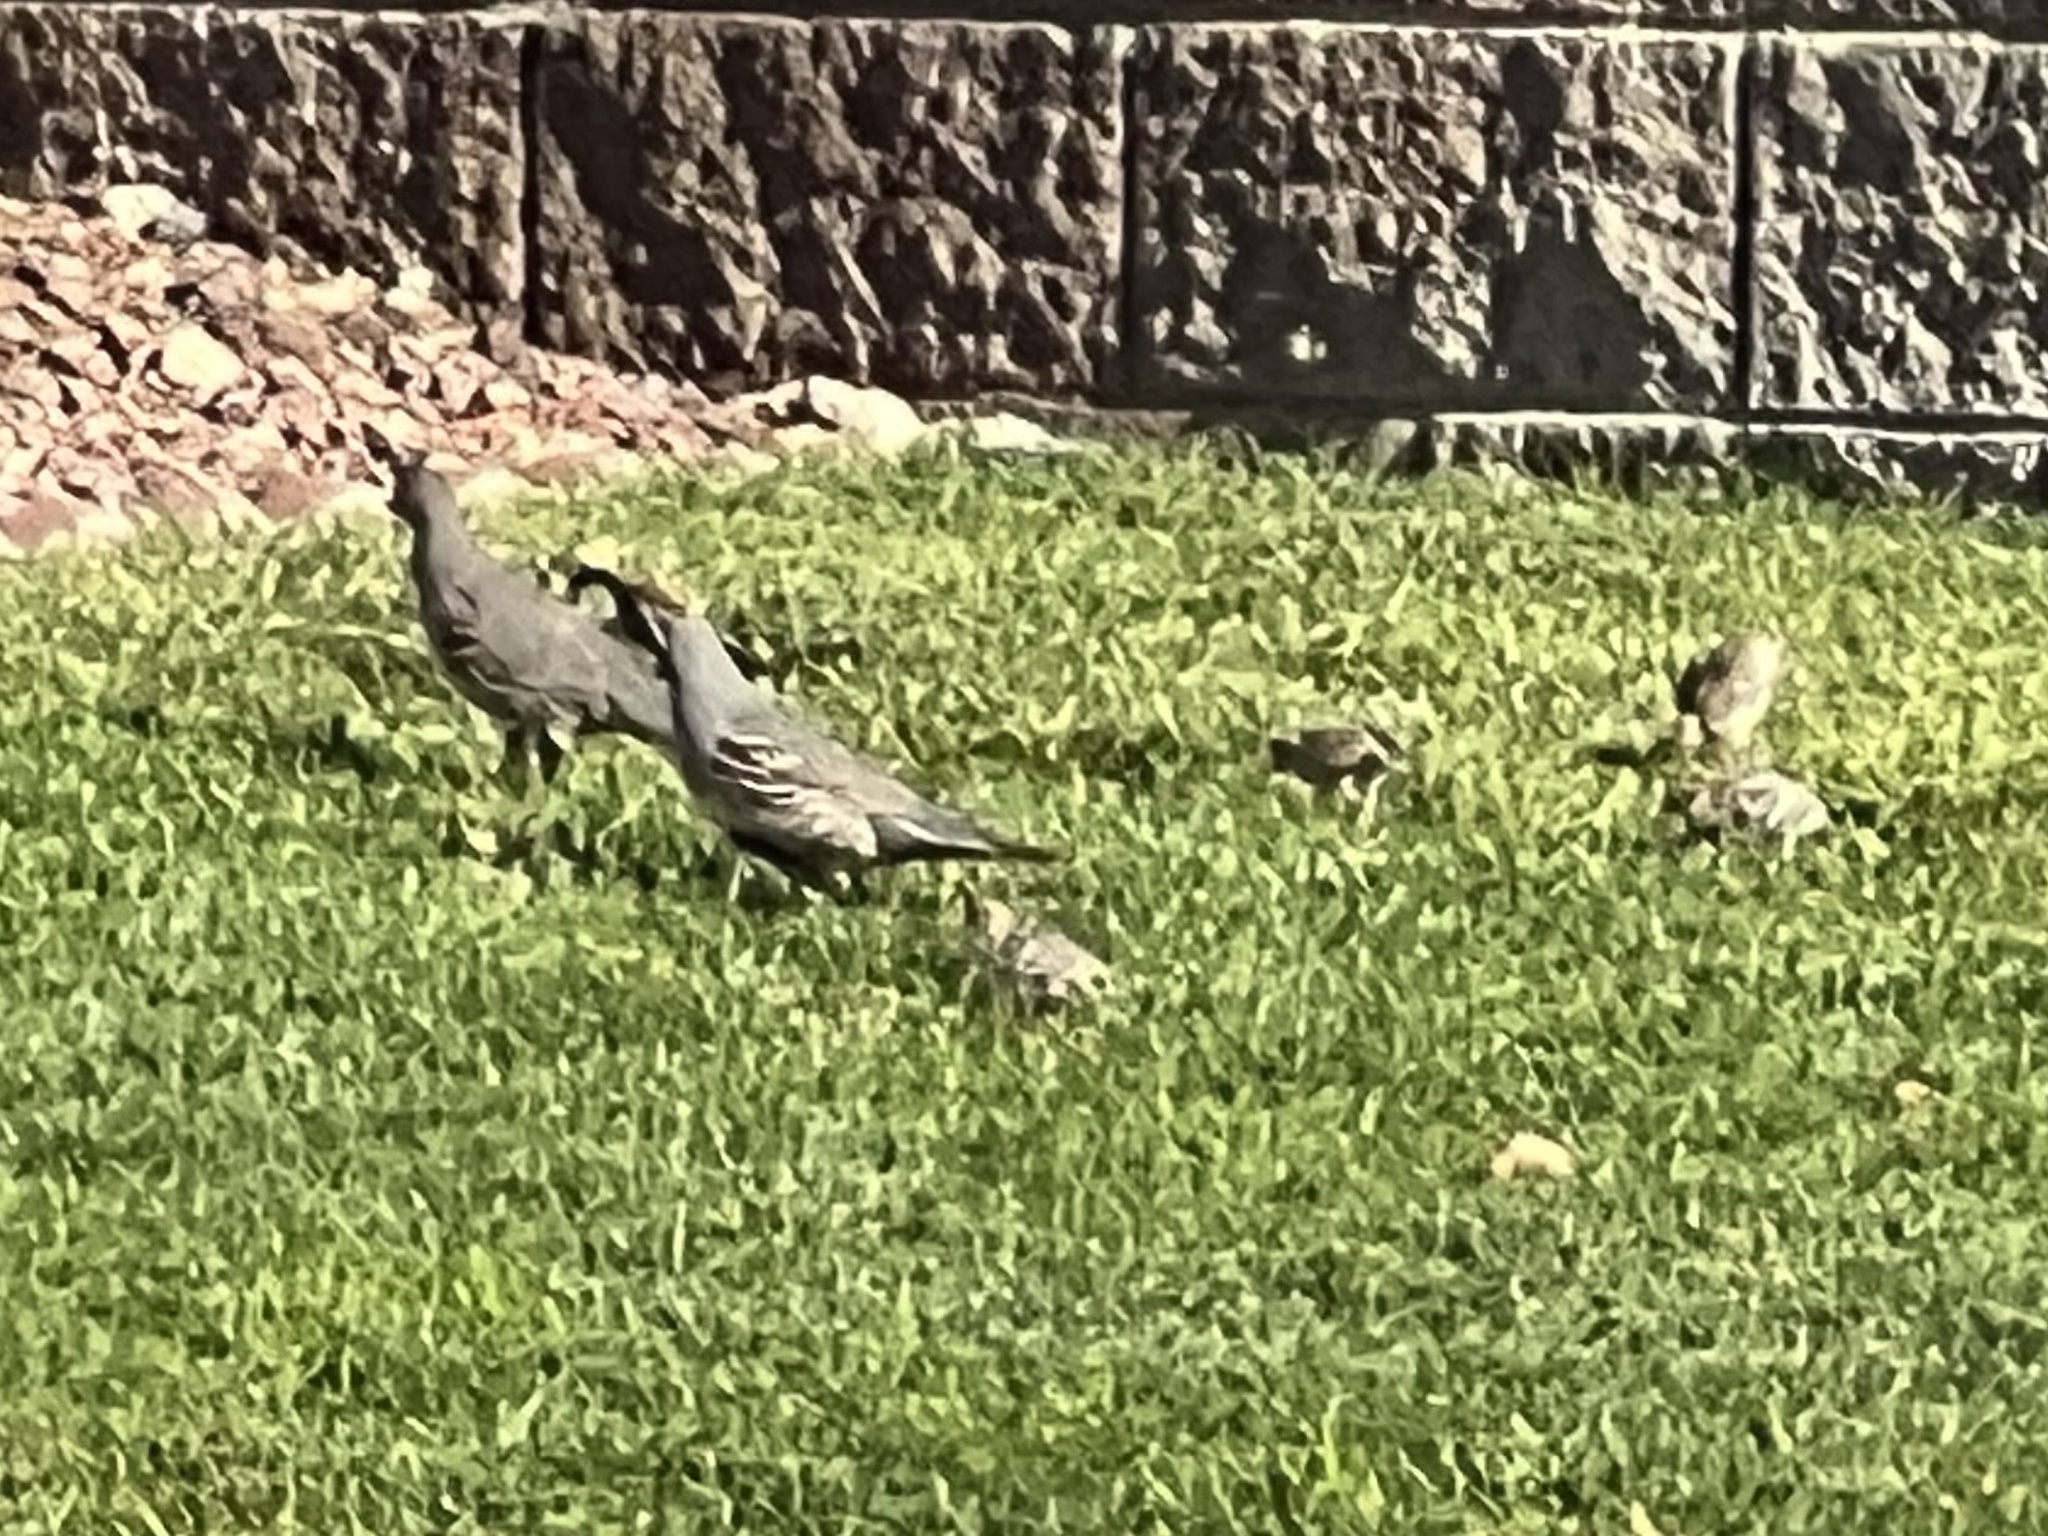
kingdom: Animalia
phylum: Chordata
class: Aves
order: Galliformes
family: Odontophoridae
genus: Callipepla
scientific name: Callipepla gambelii
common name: Gambel's quail
